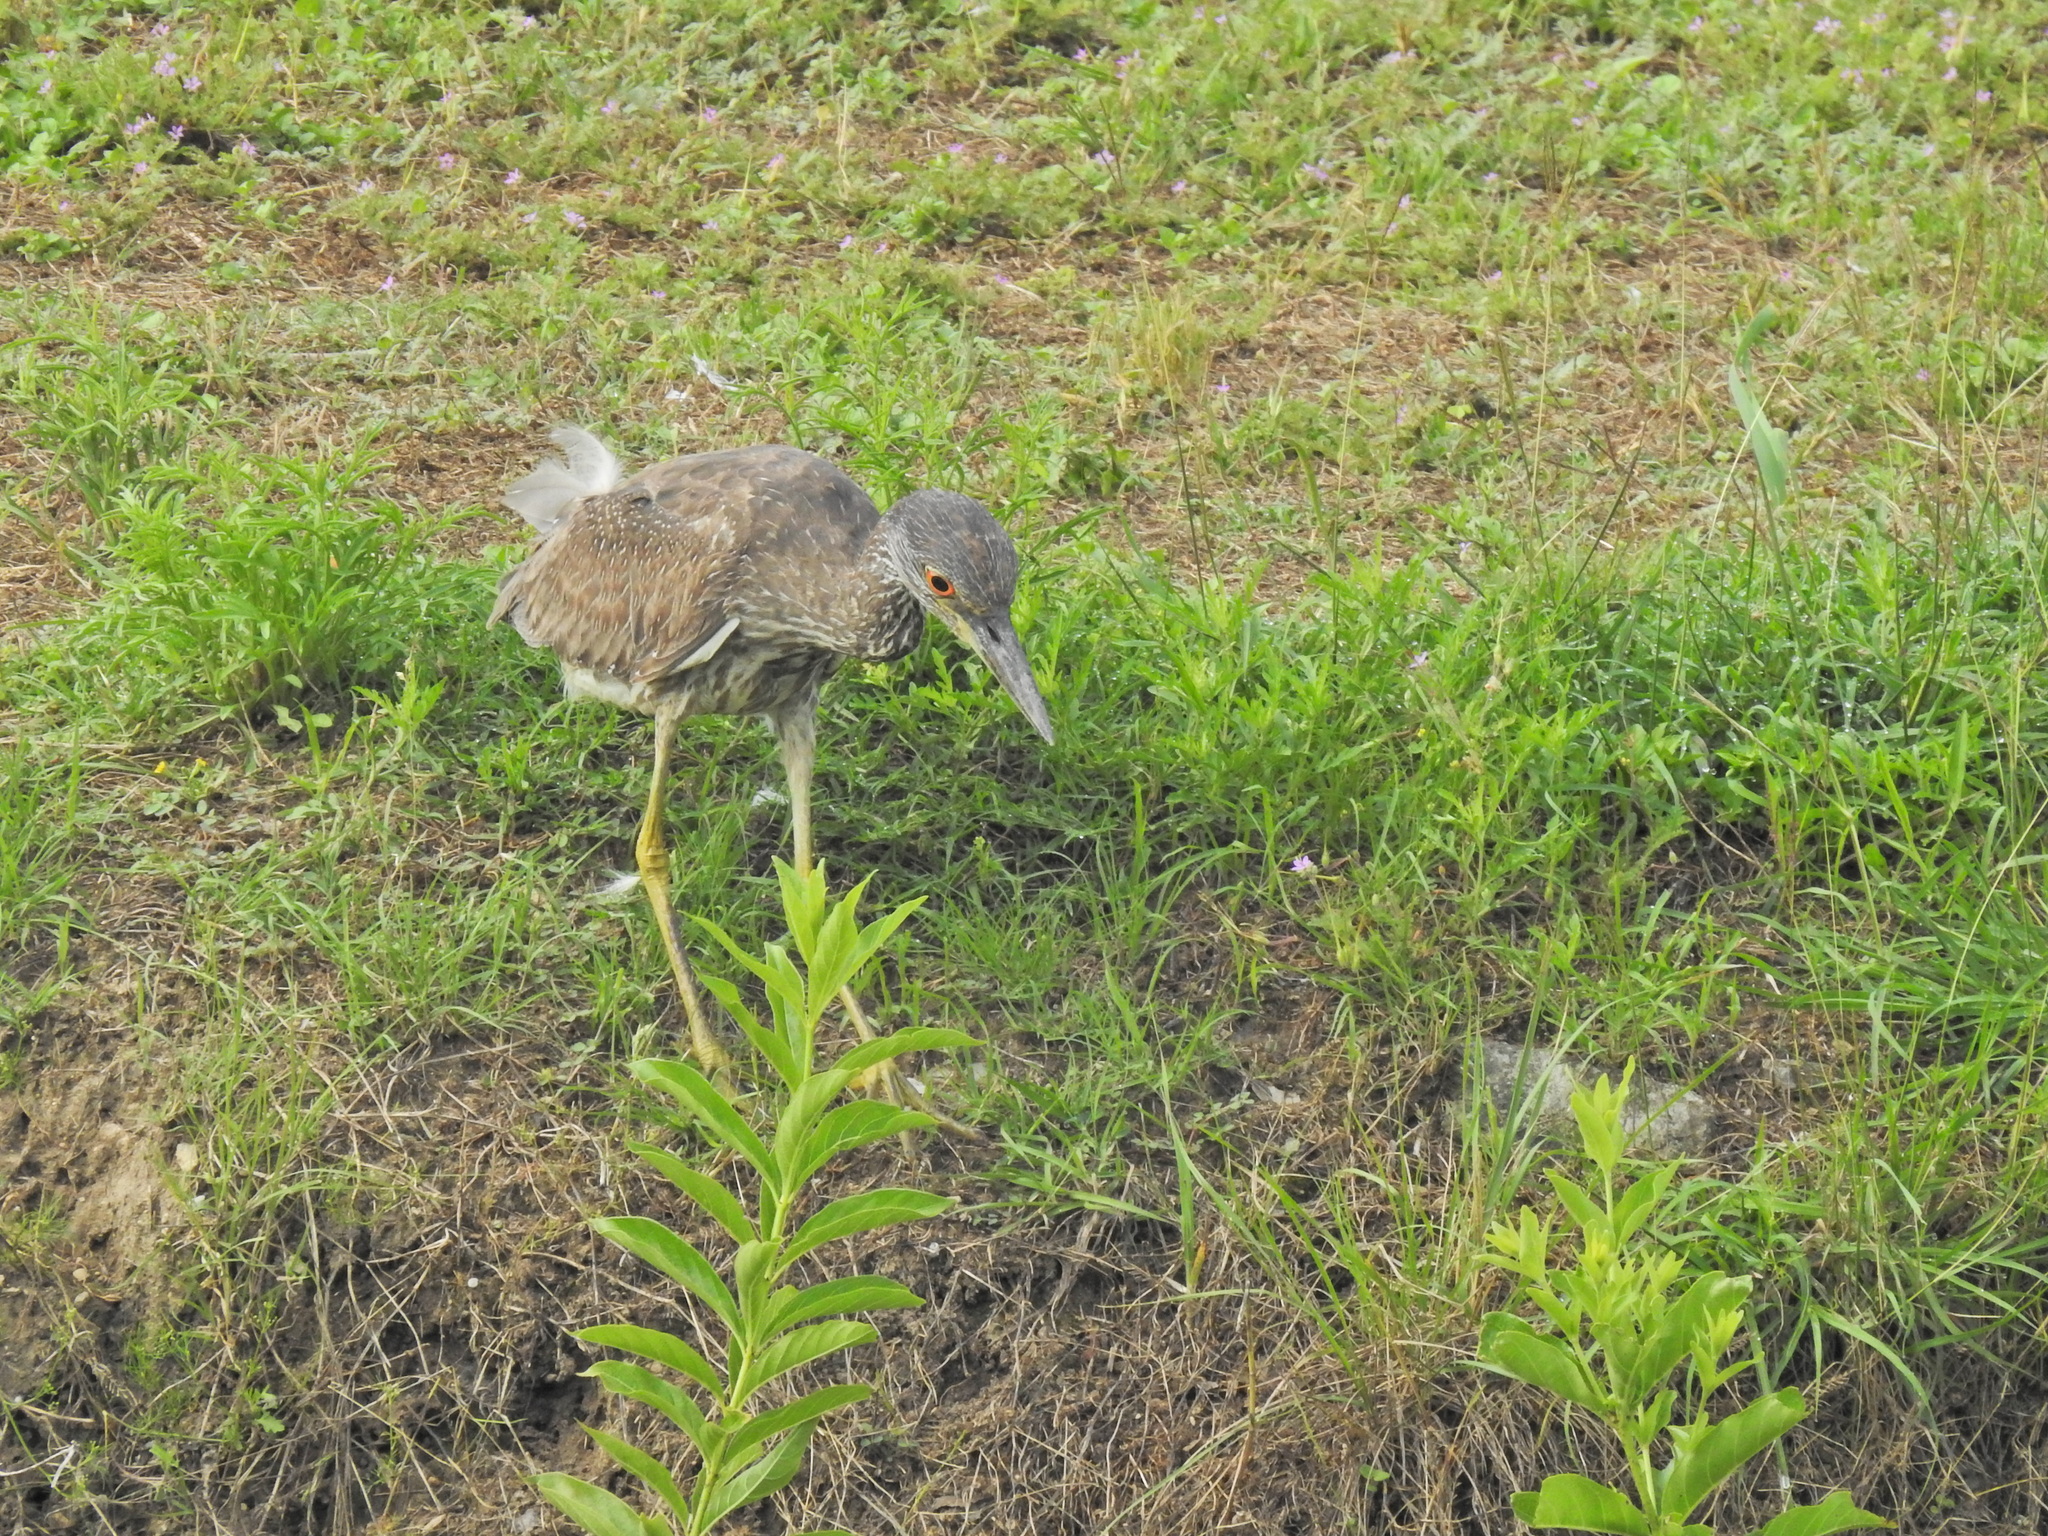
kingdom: Animalia
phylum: Chordata
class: Aves
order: Pelecaniformes
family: Ardeidae
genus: Nyctanassa
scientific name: Nyctanassa violacea
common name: Yellow-crowned night heron
